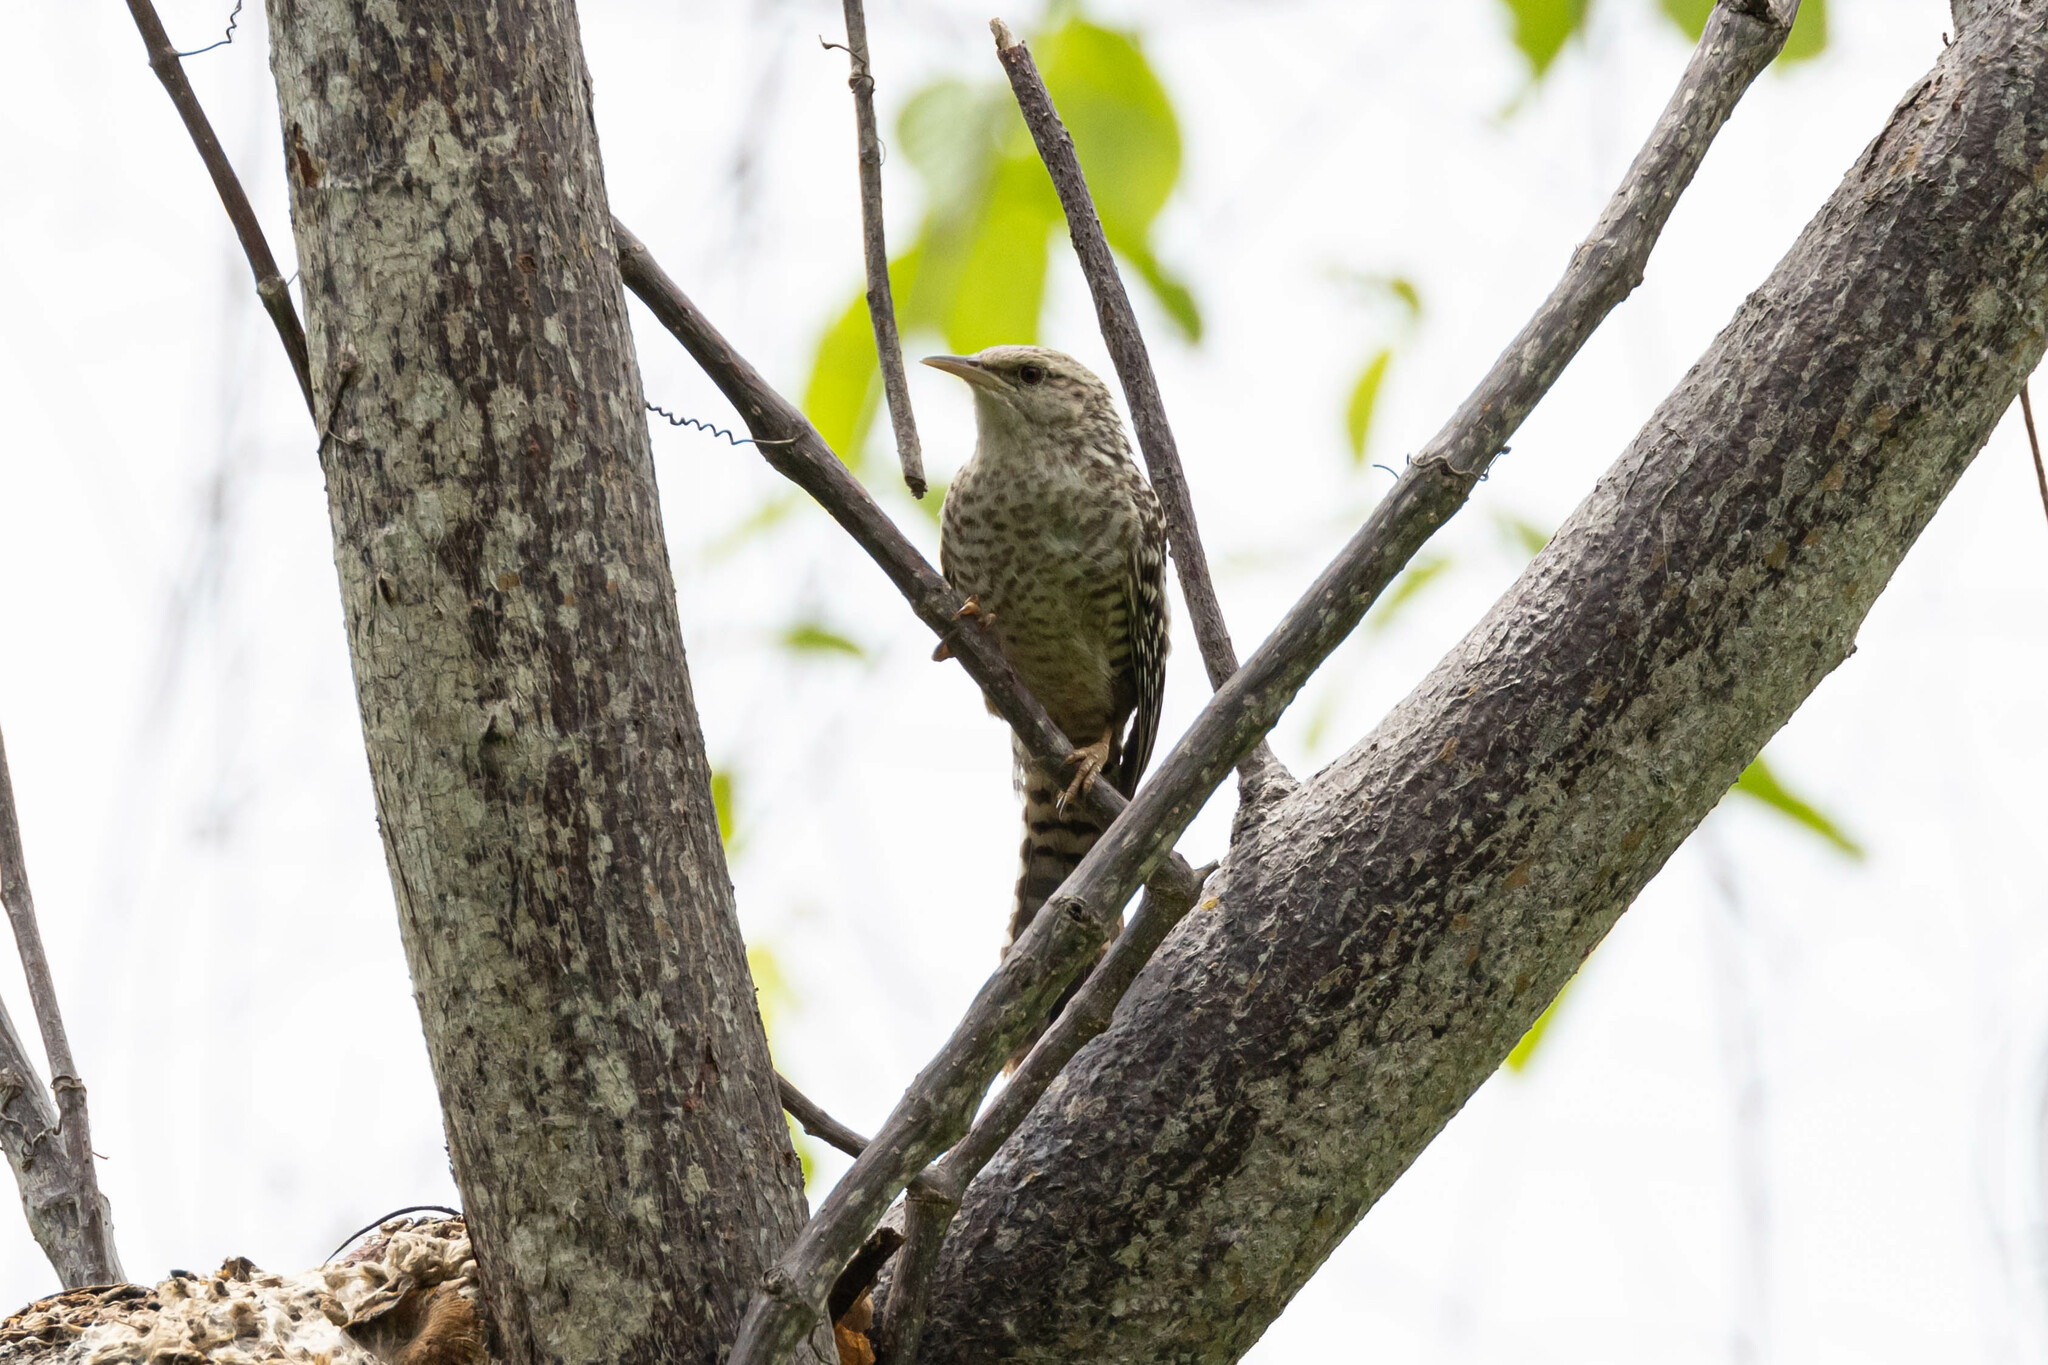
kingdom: Animalia
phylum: Chordata
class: Aves
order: Passeriformes
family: Troglodytidae
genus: Campylorhynchus
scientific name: Campylorhynchus fasciatus
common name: Fasciated wren
